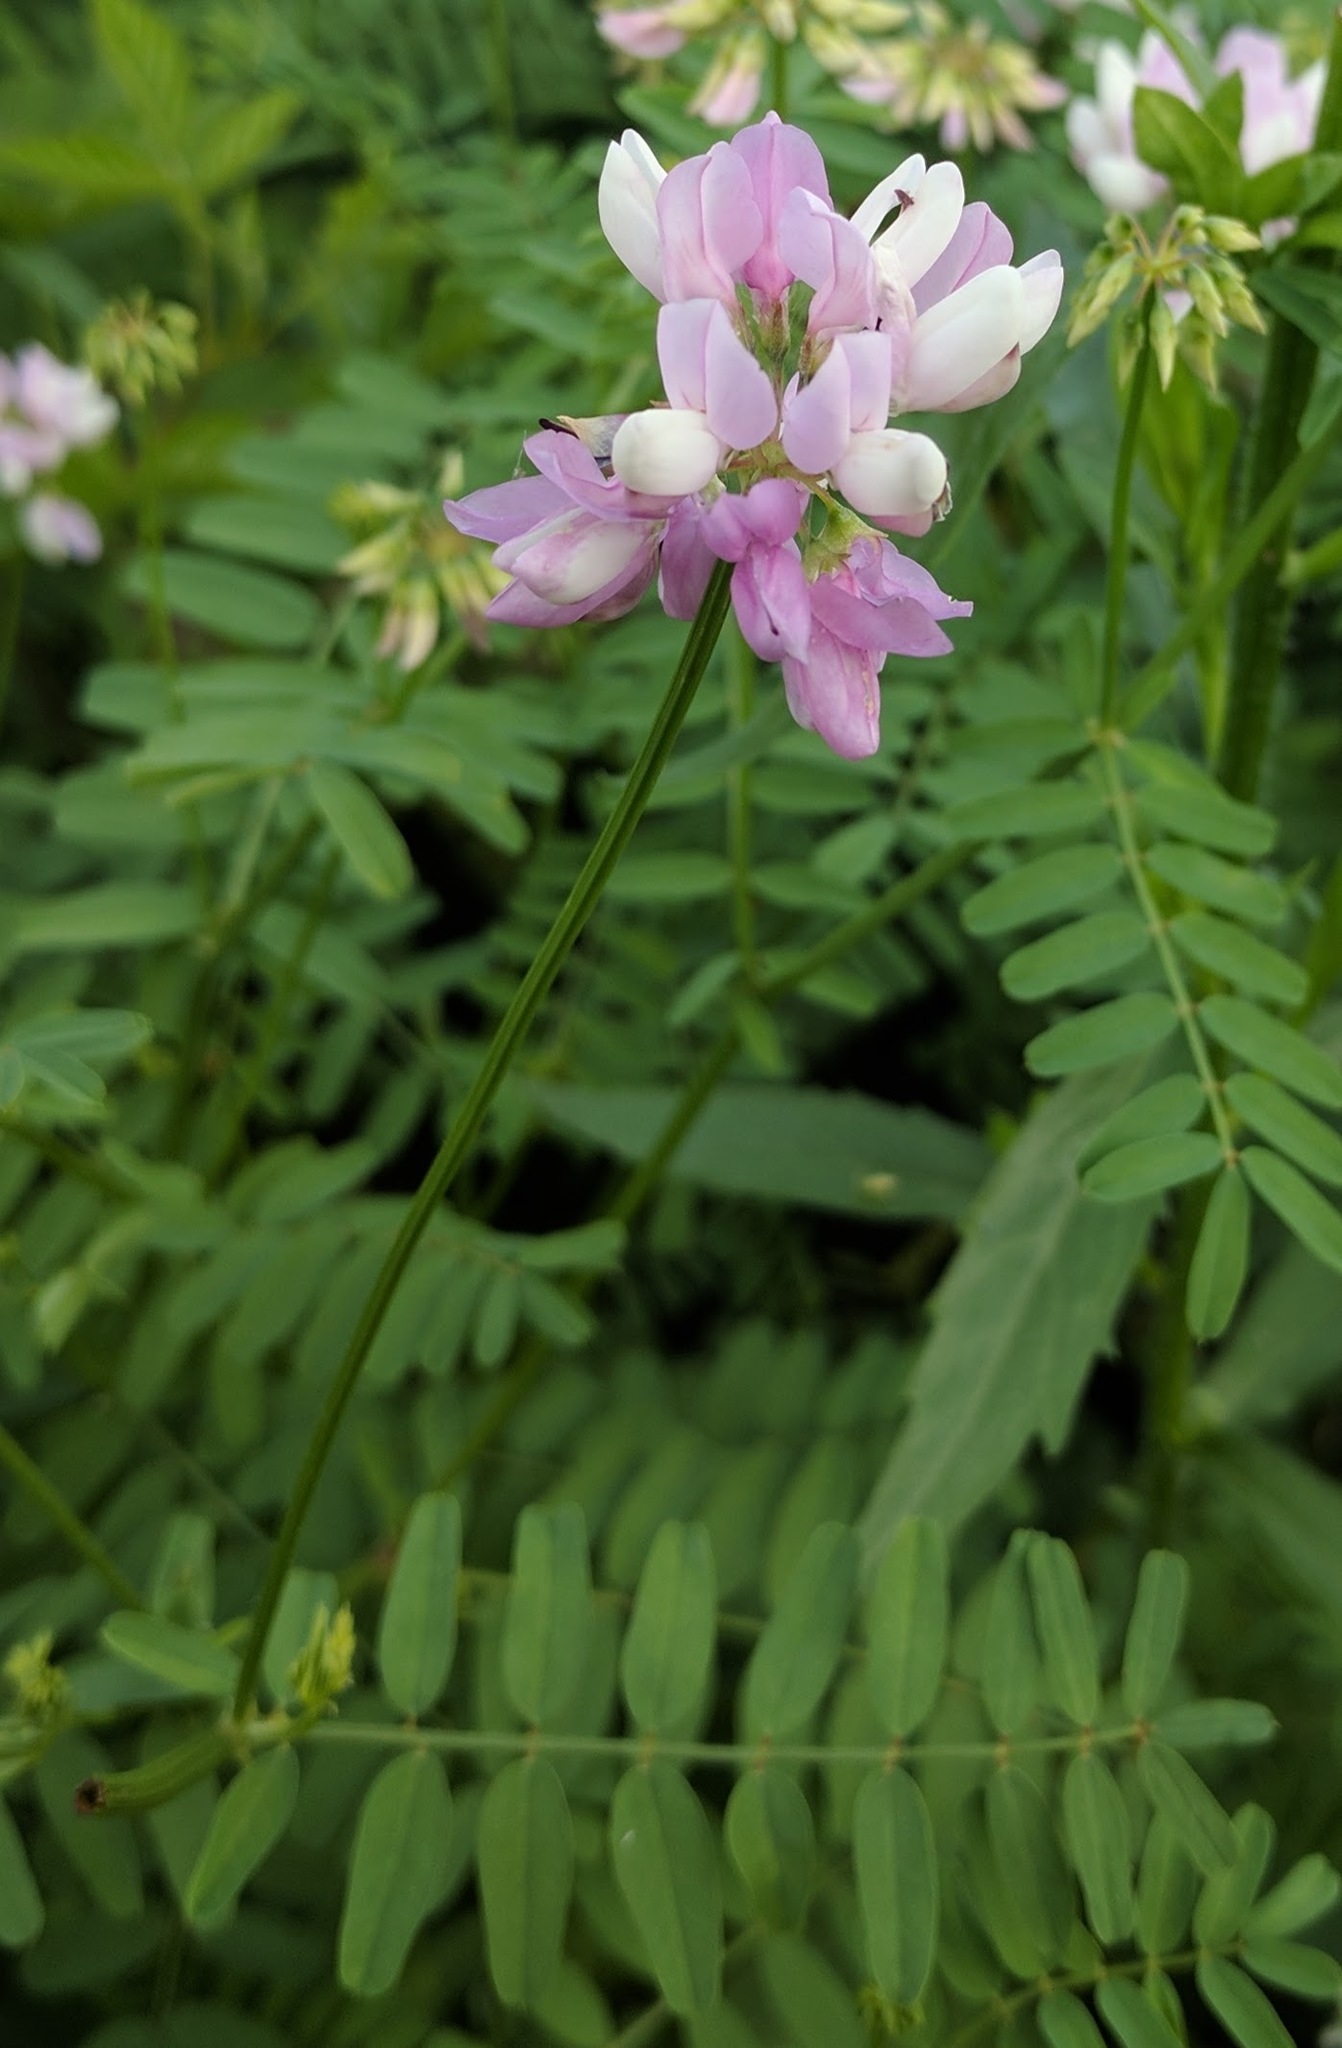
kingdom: Plantae
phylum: Tracheophyta
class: Magnoliopsida
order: Fabales
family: Fabaceae
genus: Coronilla
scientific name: Coronilla varia
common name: Crownvetch
